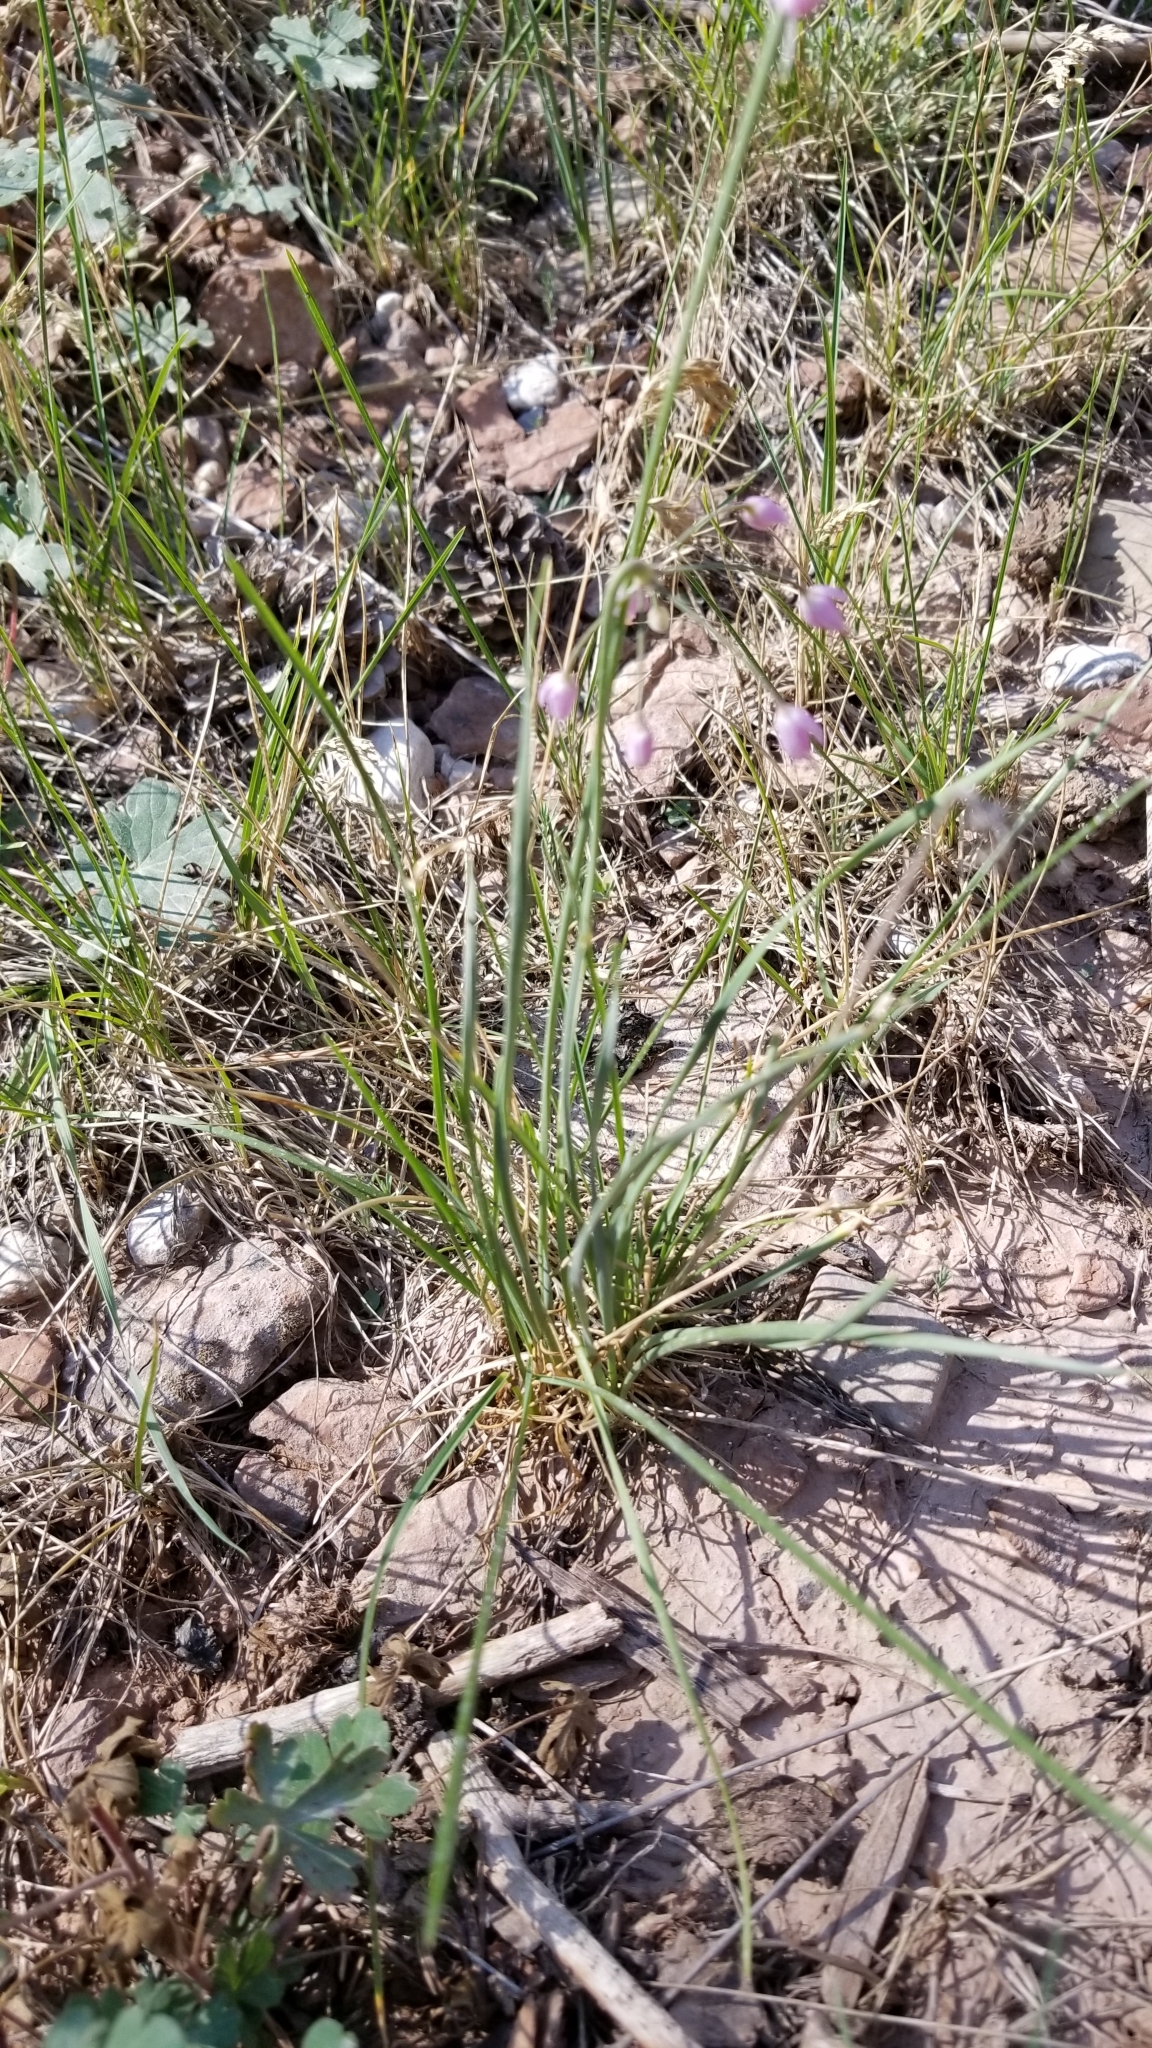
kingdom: Plantae
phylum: Tracheophyta
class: Liliopsida
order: Asparagales
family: Amaryllidaceae
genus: Allium
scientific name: Allium cernuum
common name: Nodding onion
